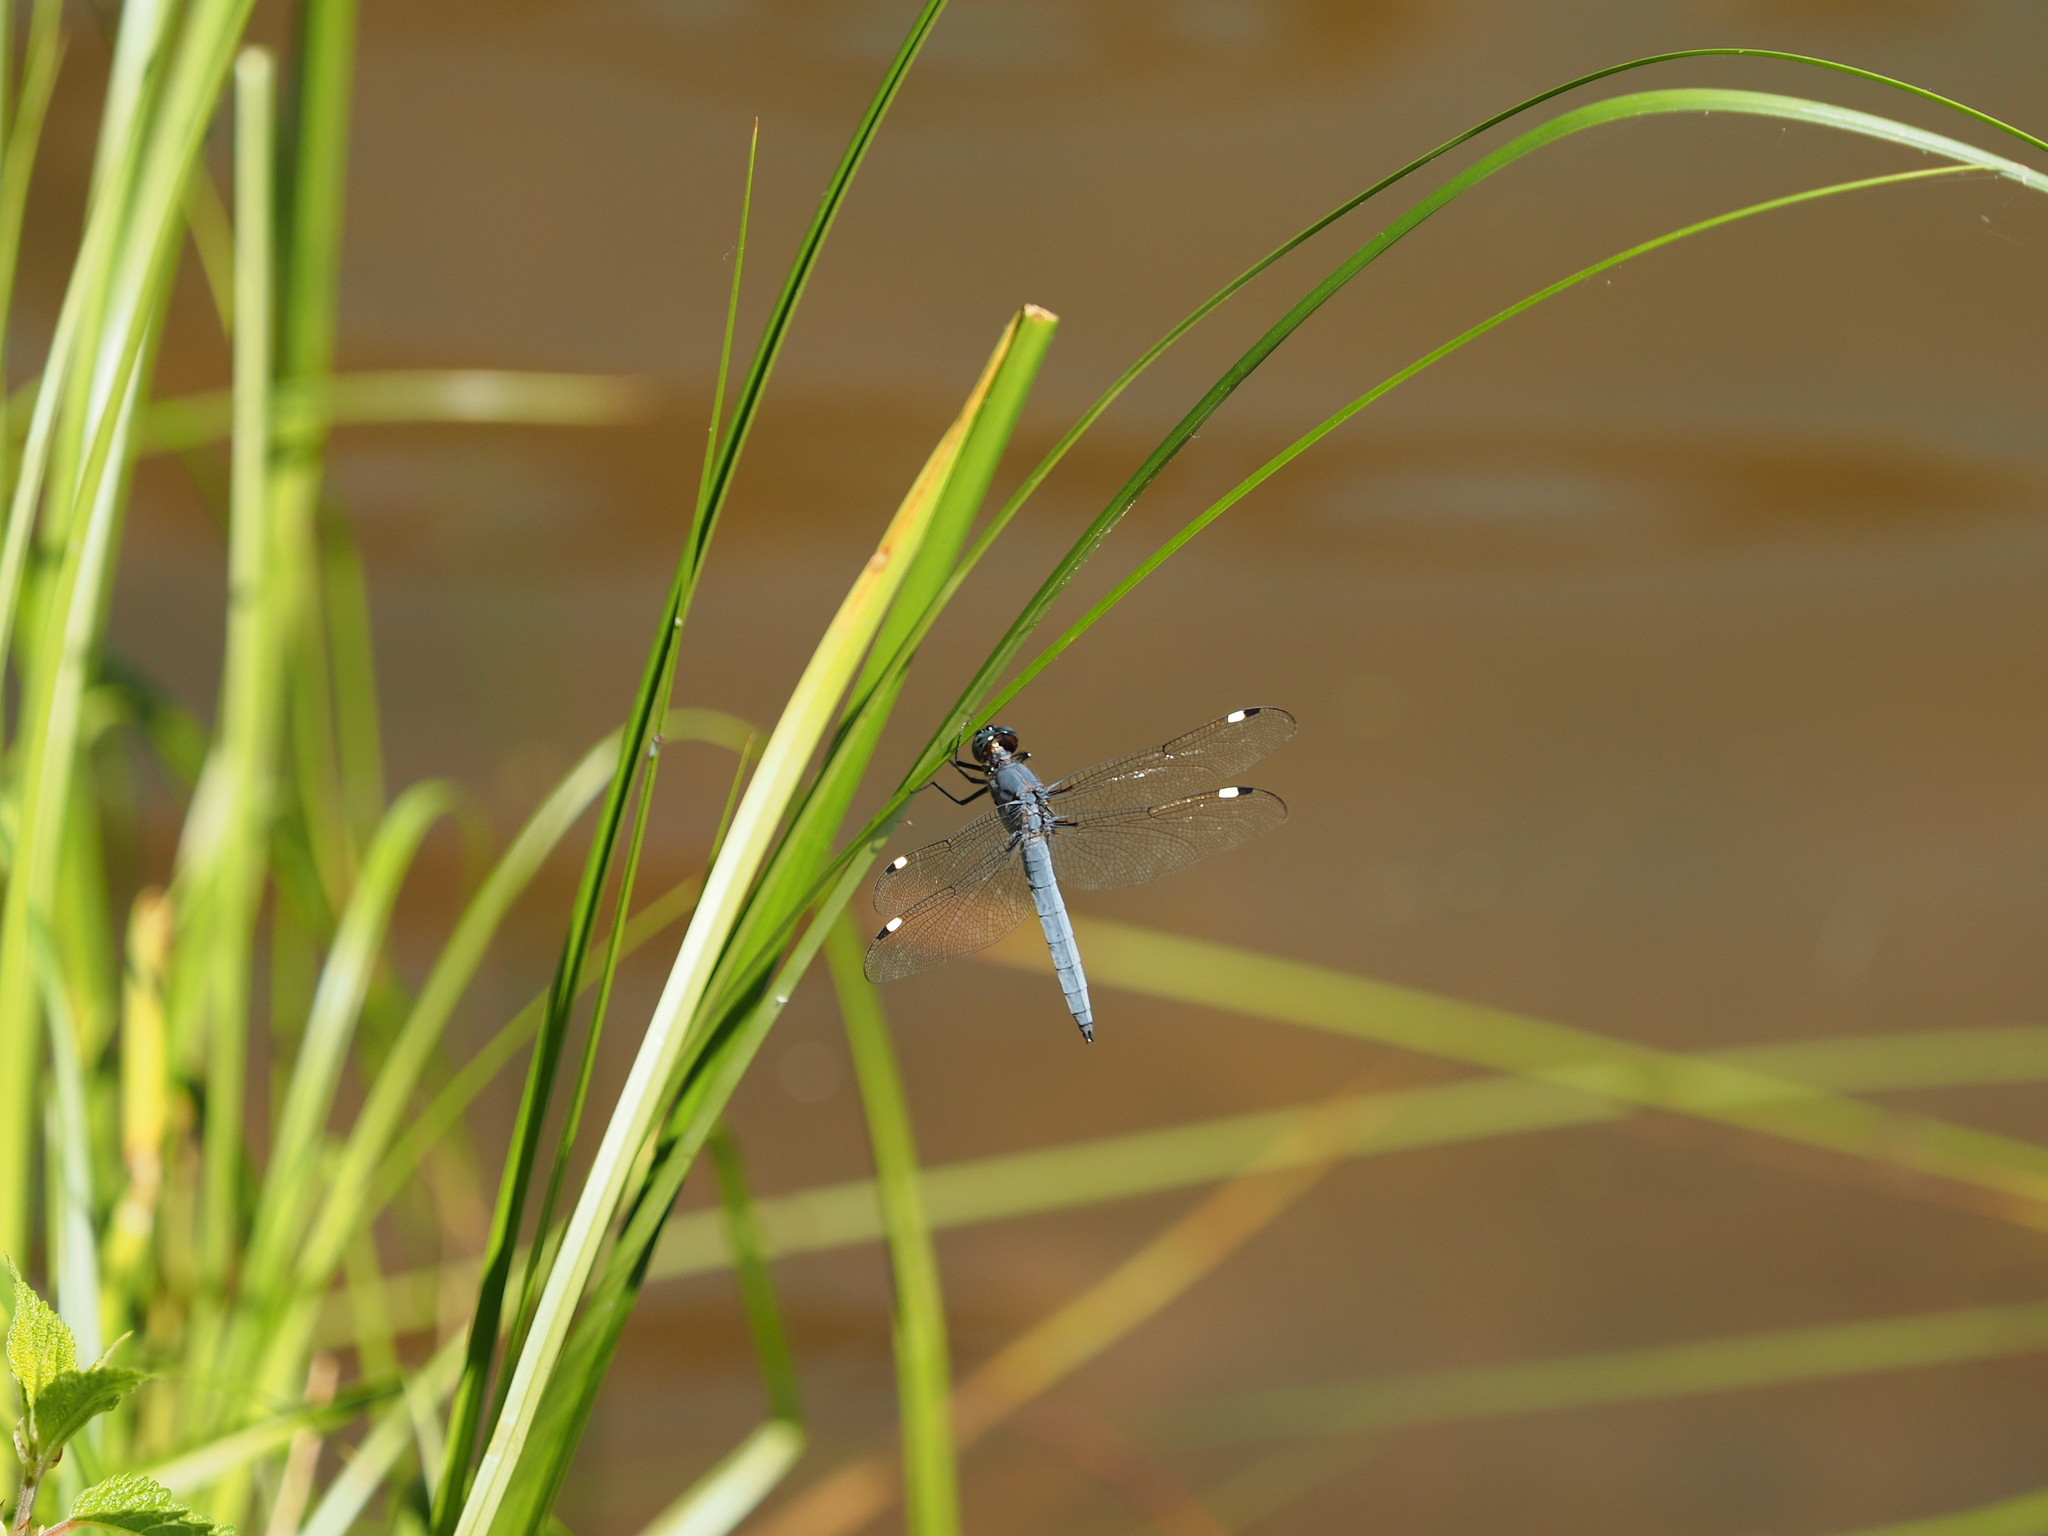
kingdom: Animalia
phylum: Arthropoda
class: Insecta
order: Odonata
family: Libellulidae
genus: Libellula
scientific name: Libellula cyanea
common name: Spangled skimmer
